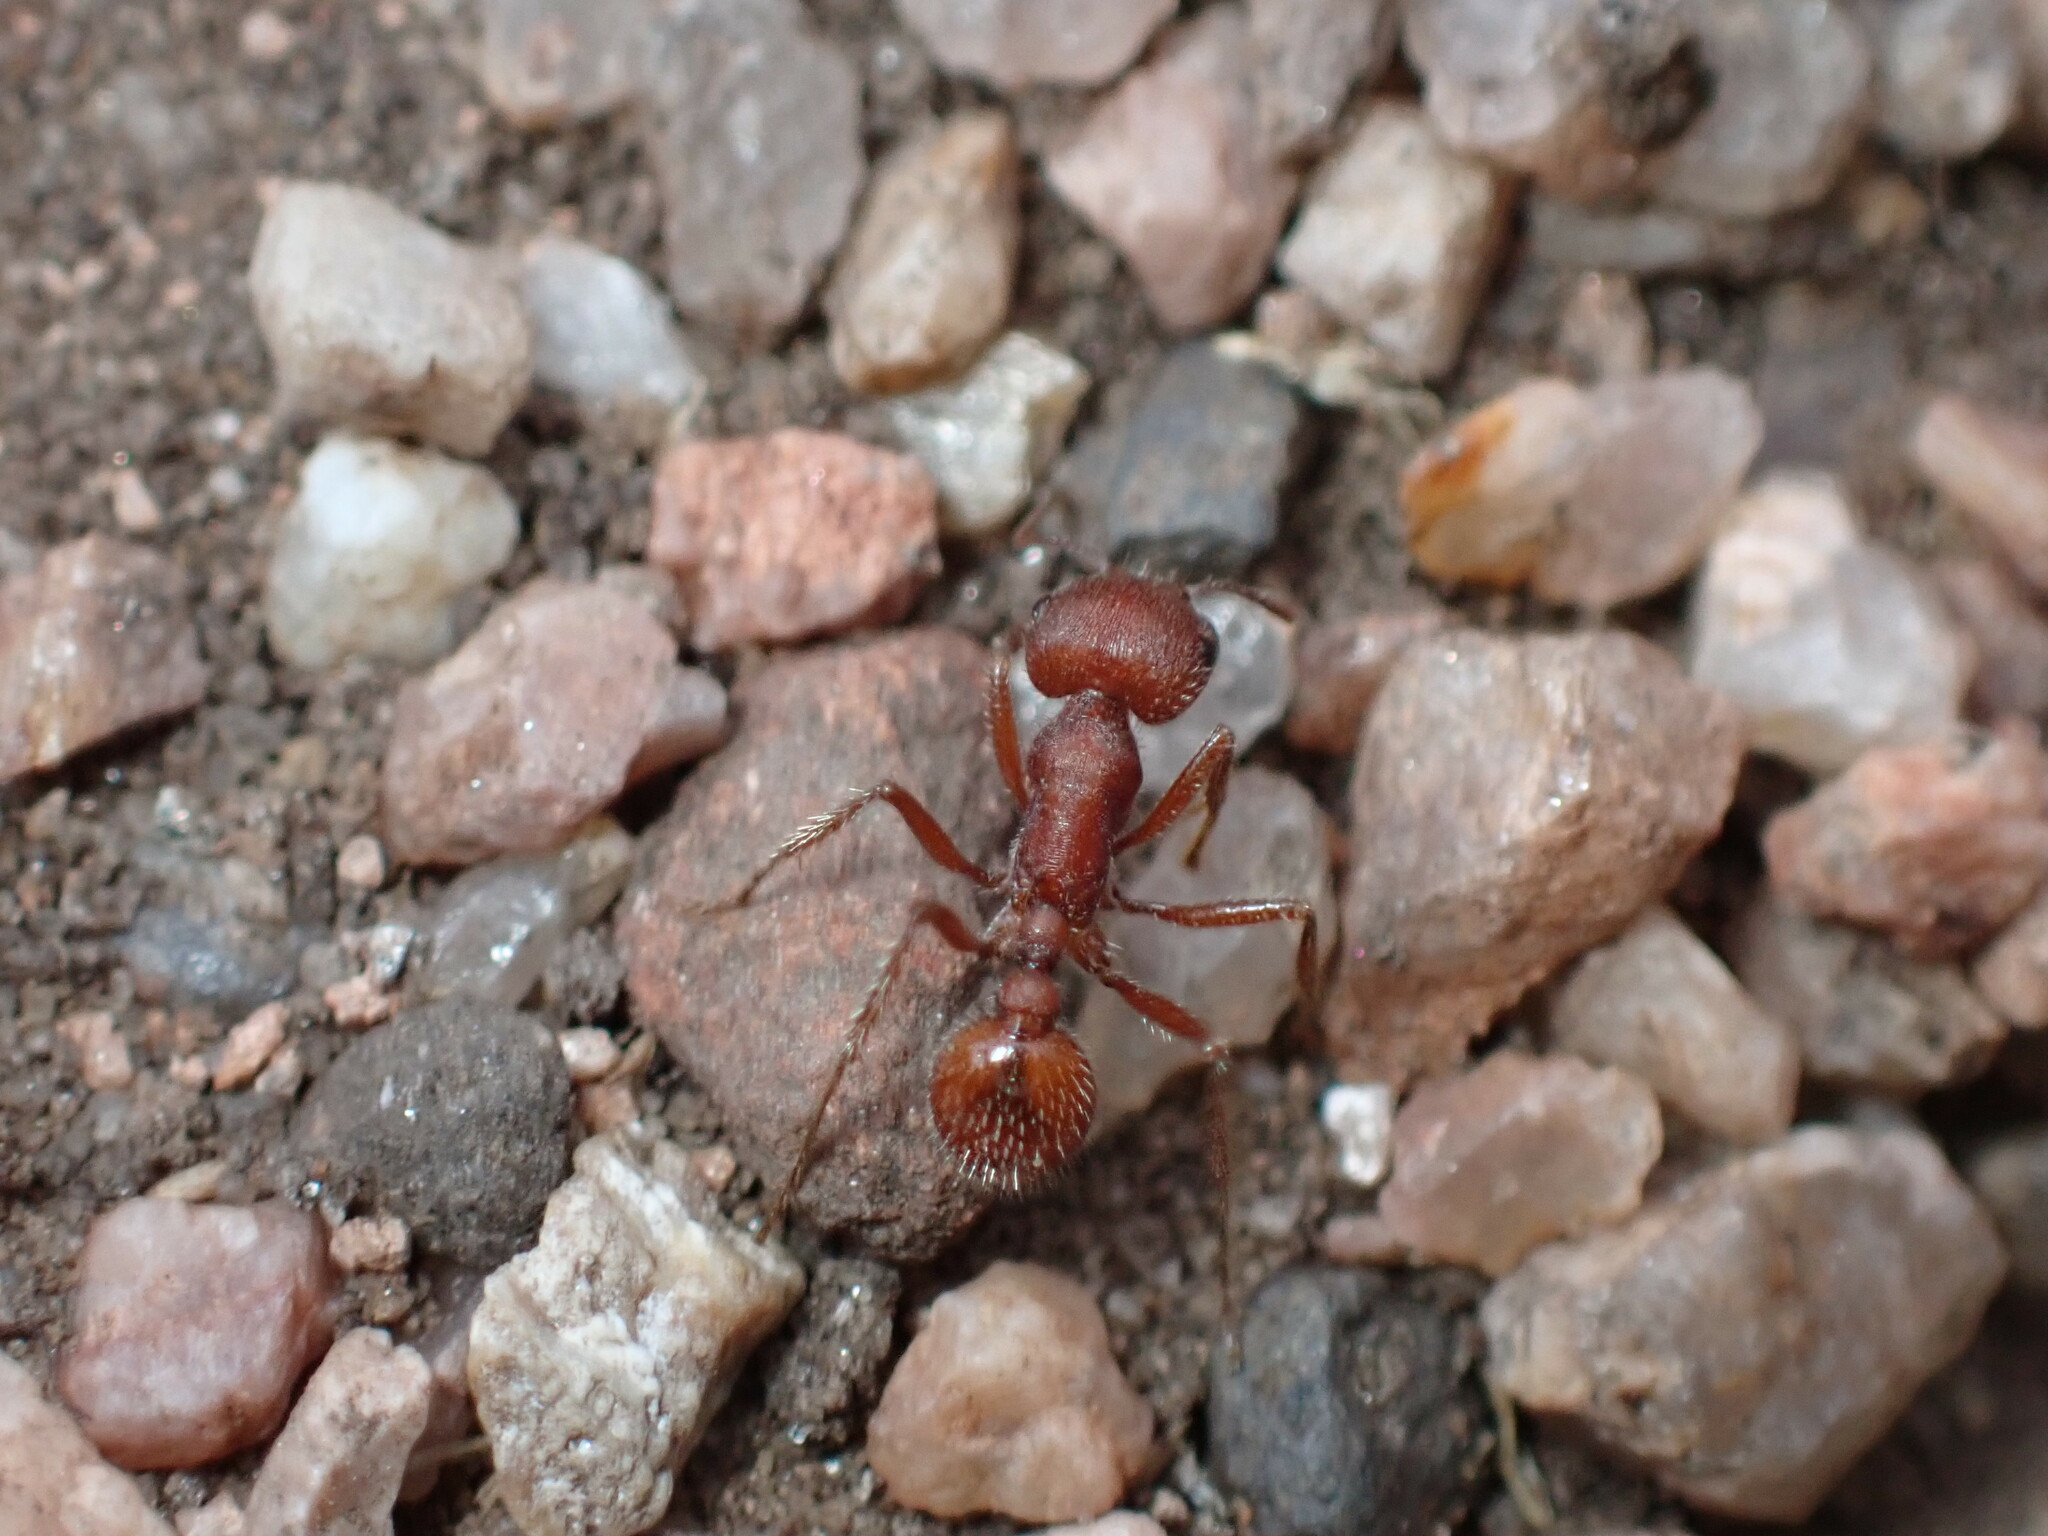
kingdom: Animalia
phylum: Arthropoda
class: Insecta
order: Hymenoptera
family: Formicidae
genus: Pogonomyrmex
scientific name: Pogonomyrmex occidentalis
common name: Western harvester ant
